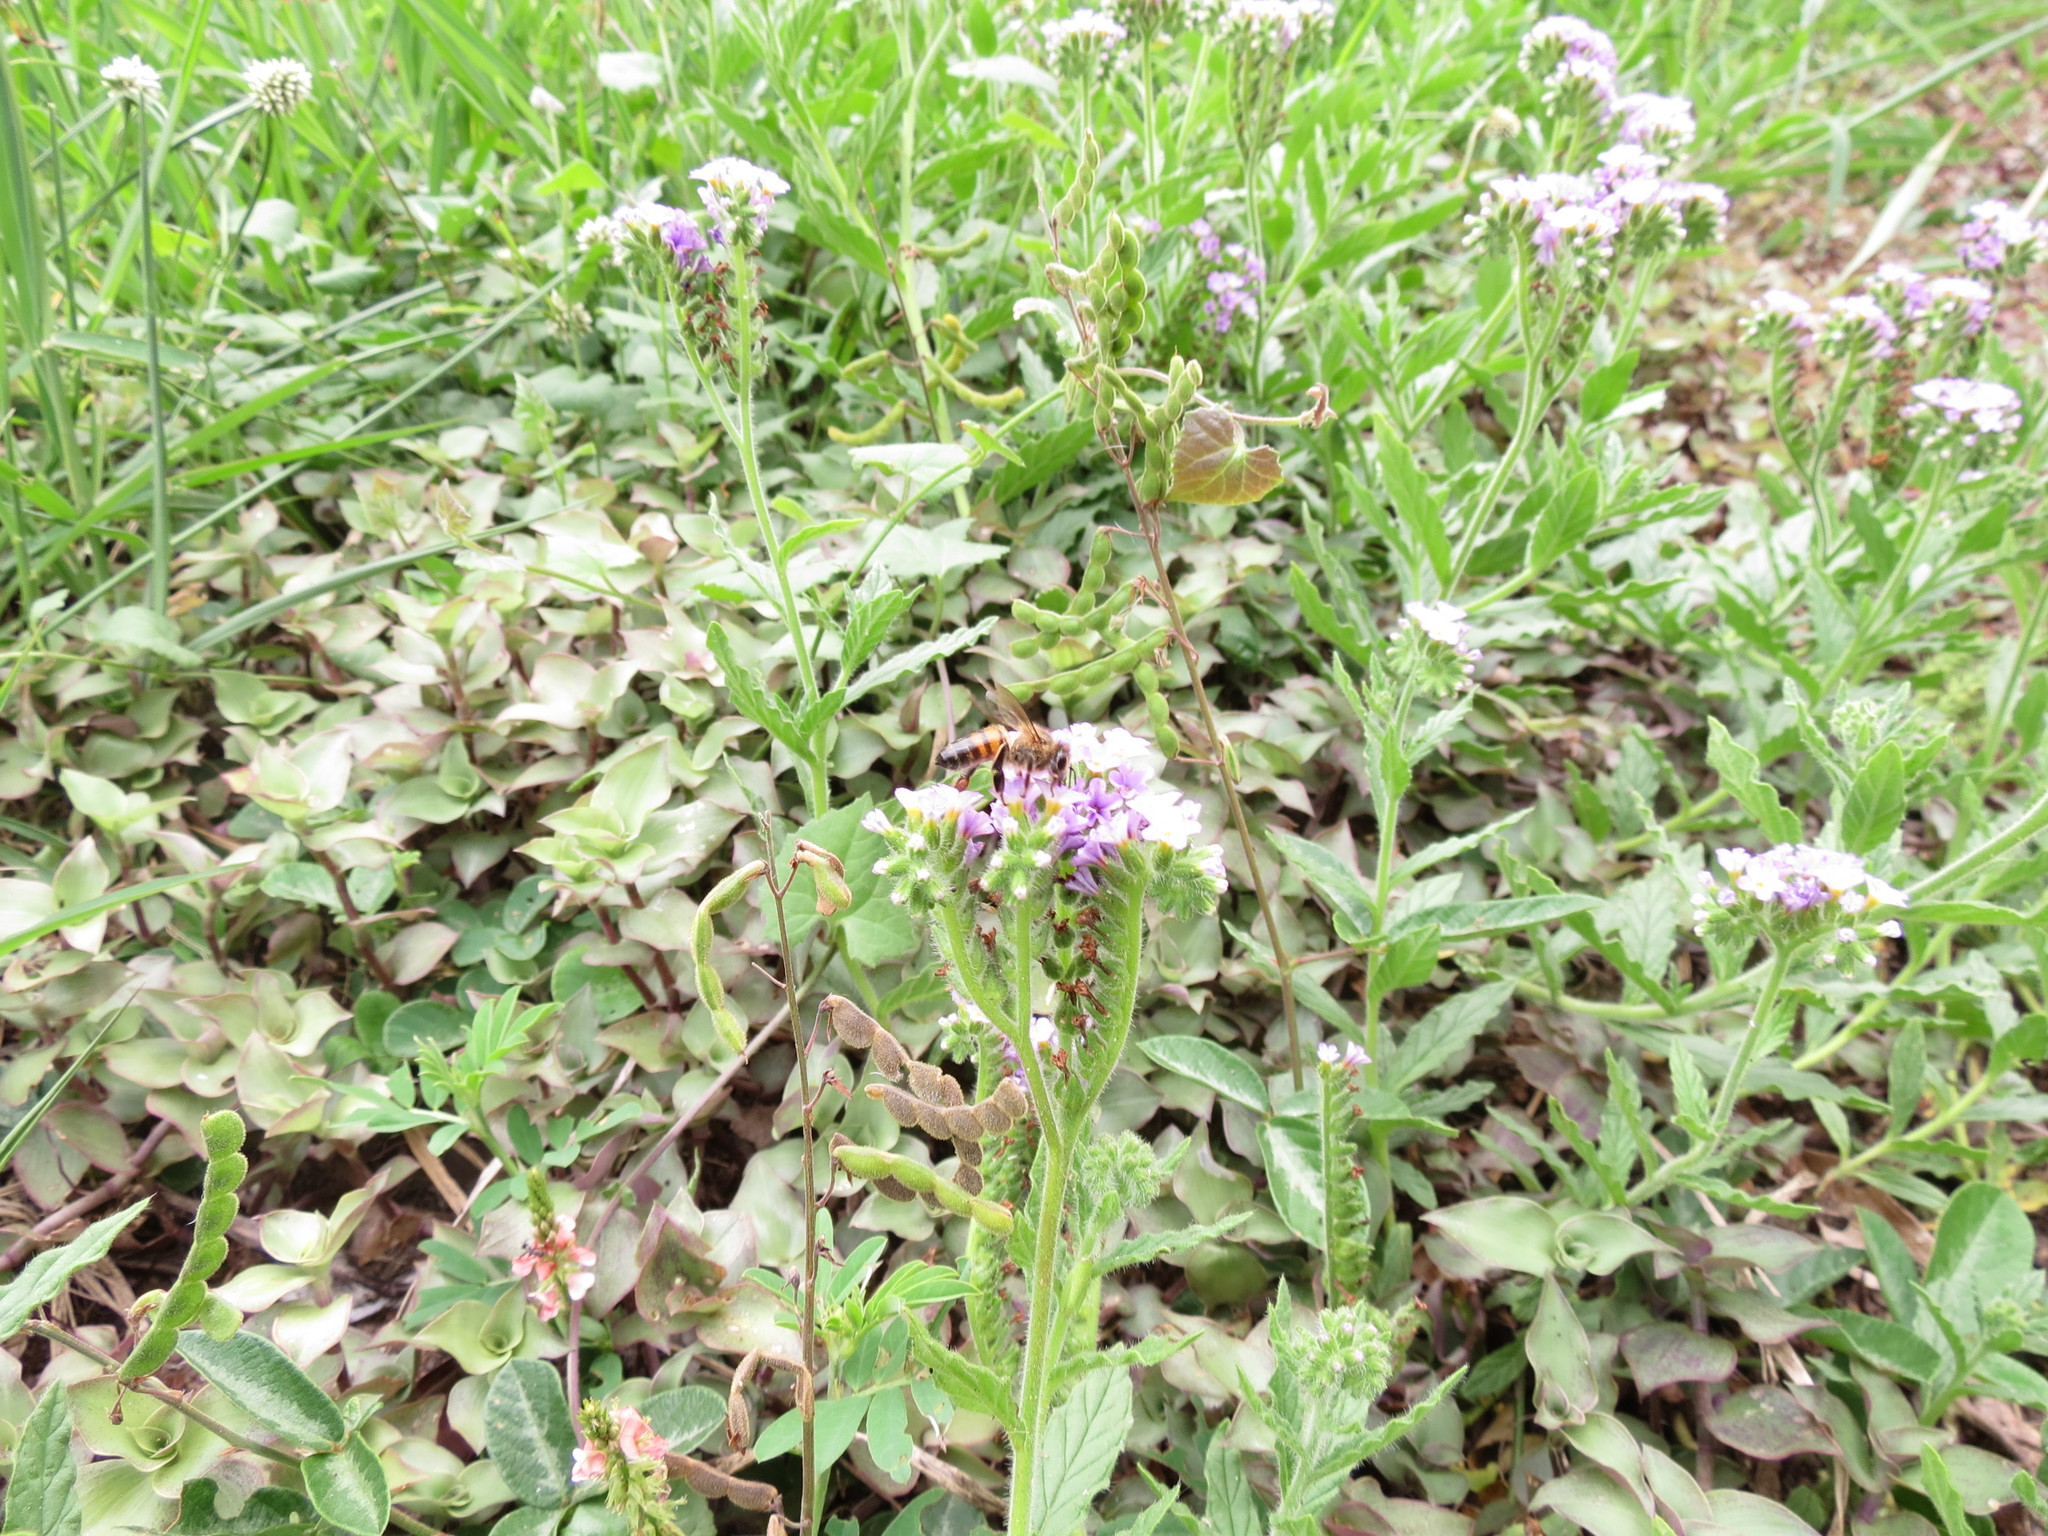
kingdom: Animalia
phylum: Arthropoda
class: Insecta
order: Hymenoptera
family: Apidae
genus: Apis
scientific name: Apis mellifera
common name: Honey bee
